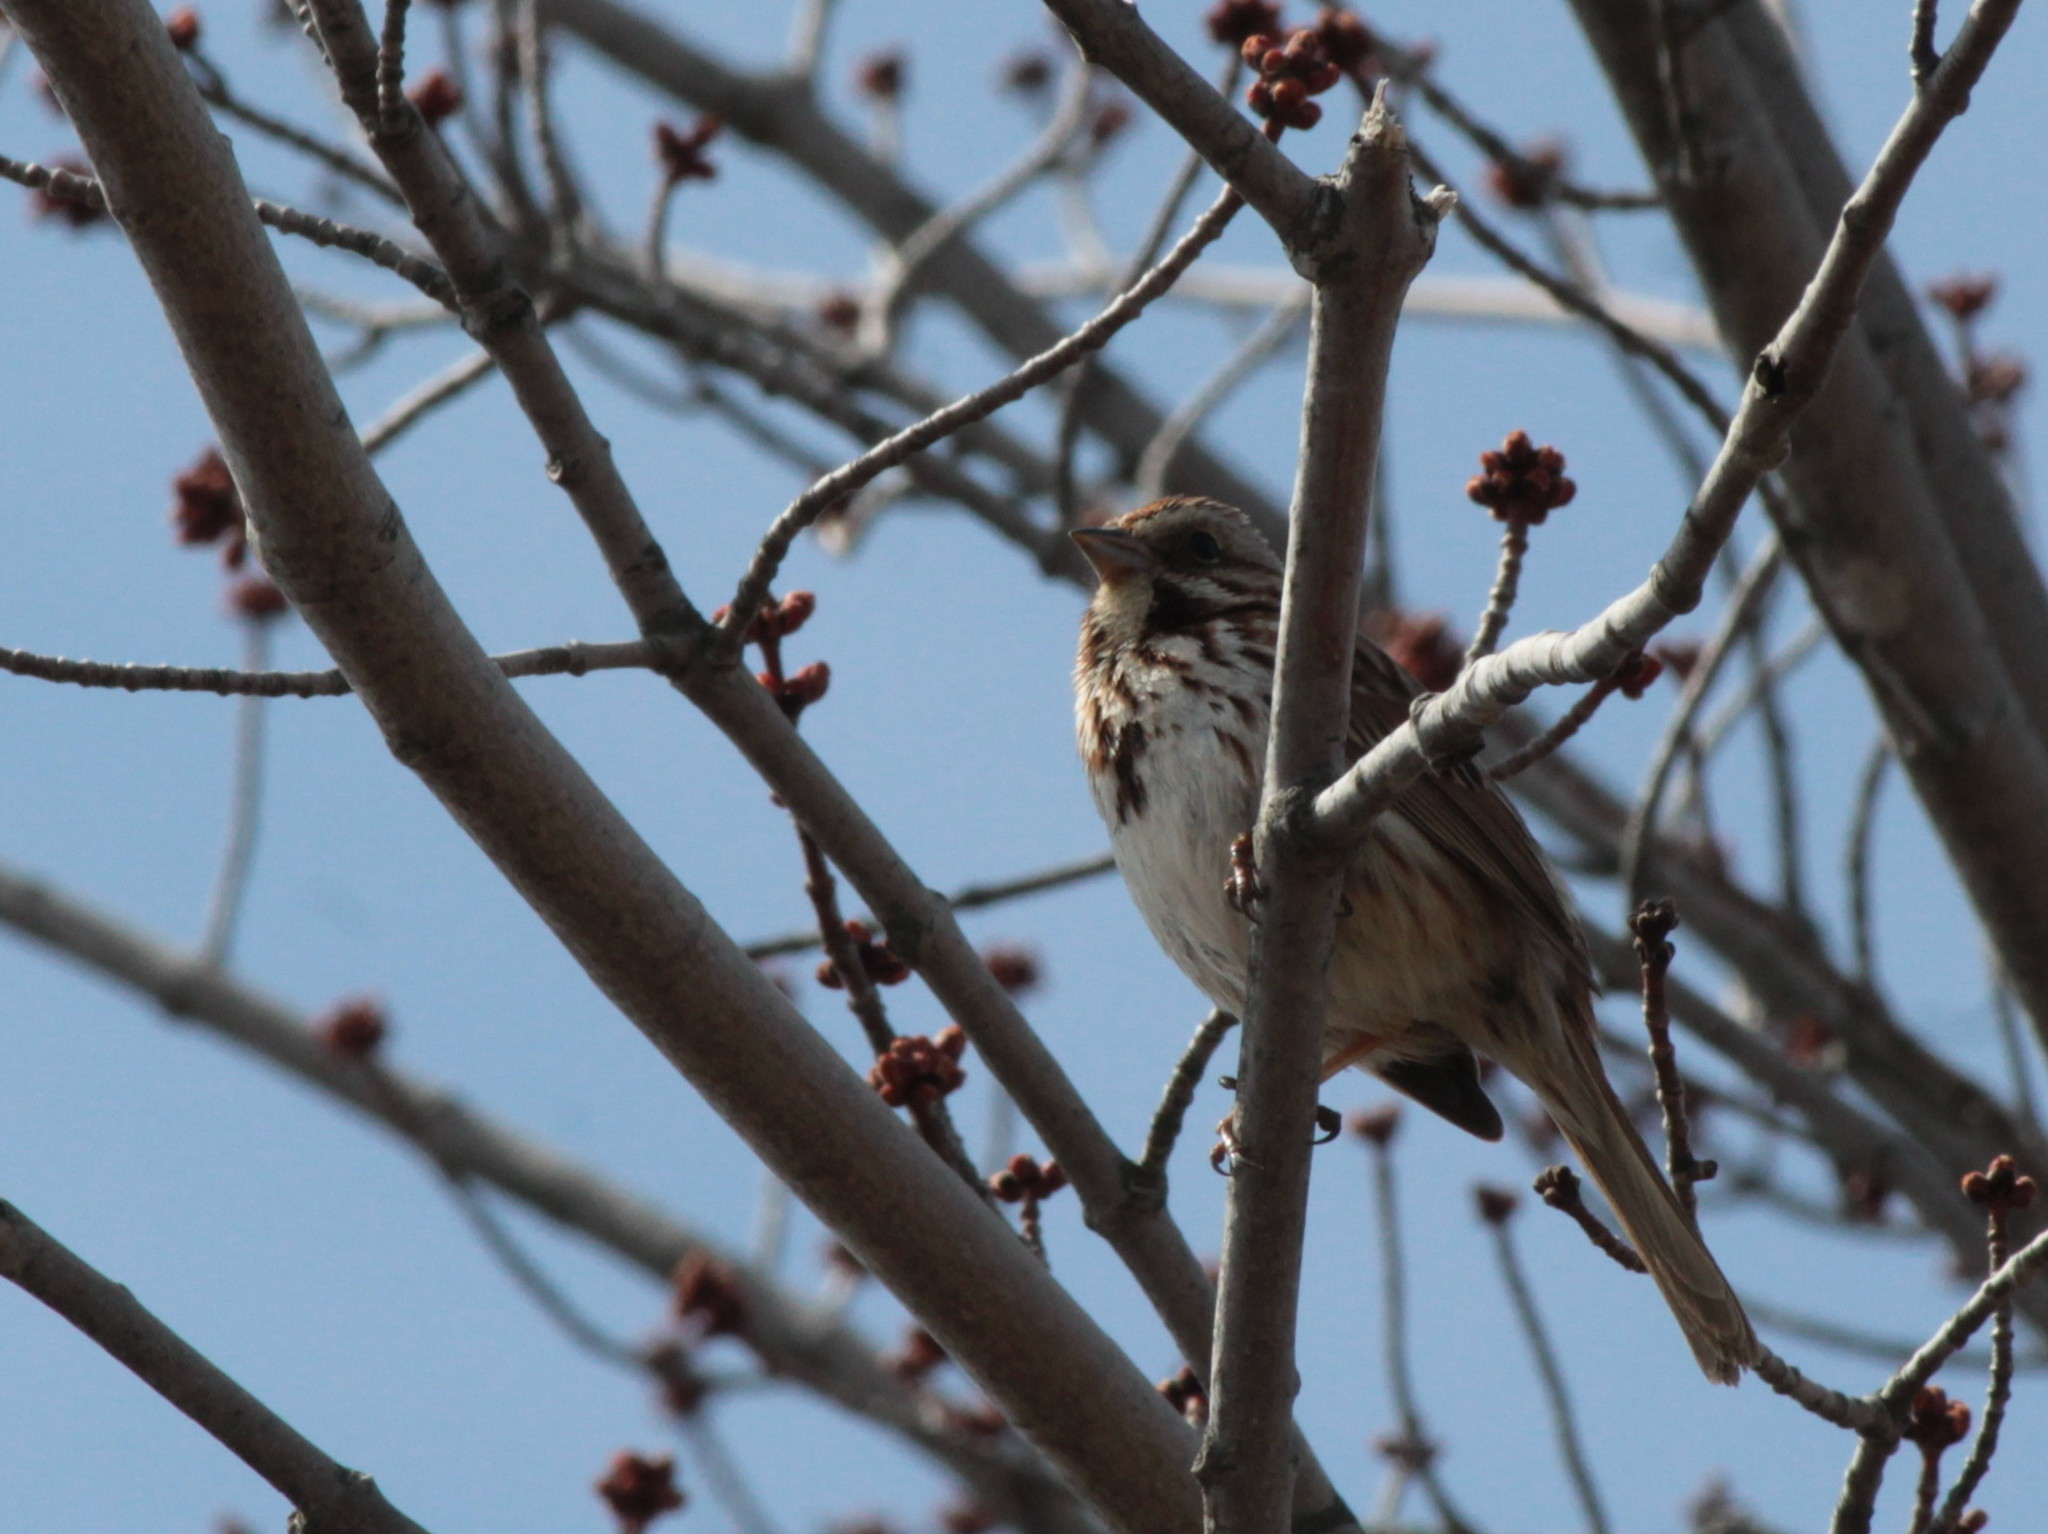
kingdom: Animalia
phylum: Chordata
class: Aves
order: Passeriformes
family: Passerellidae
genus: Melospiza
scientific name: Melospiza melodia
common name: Song sparrow
